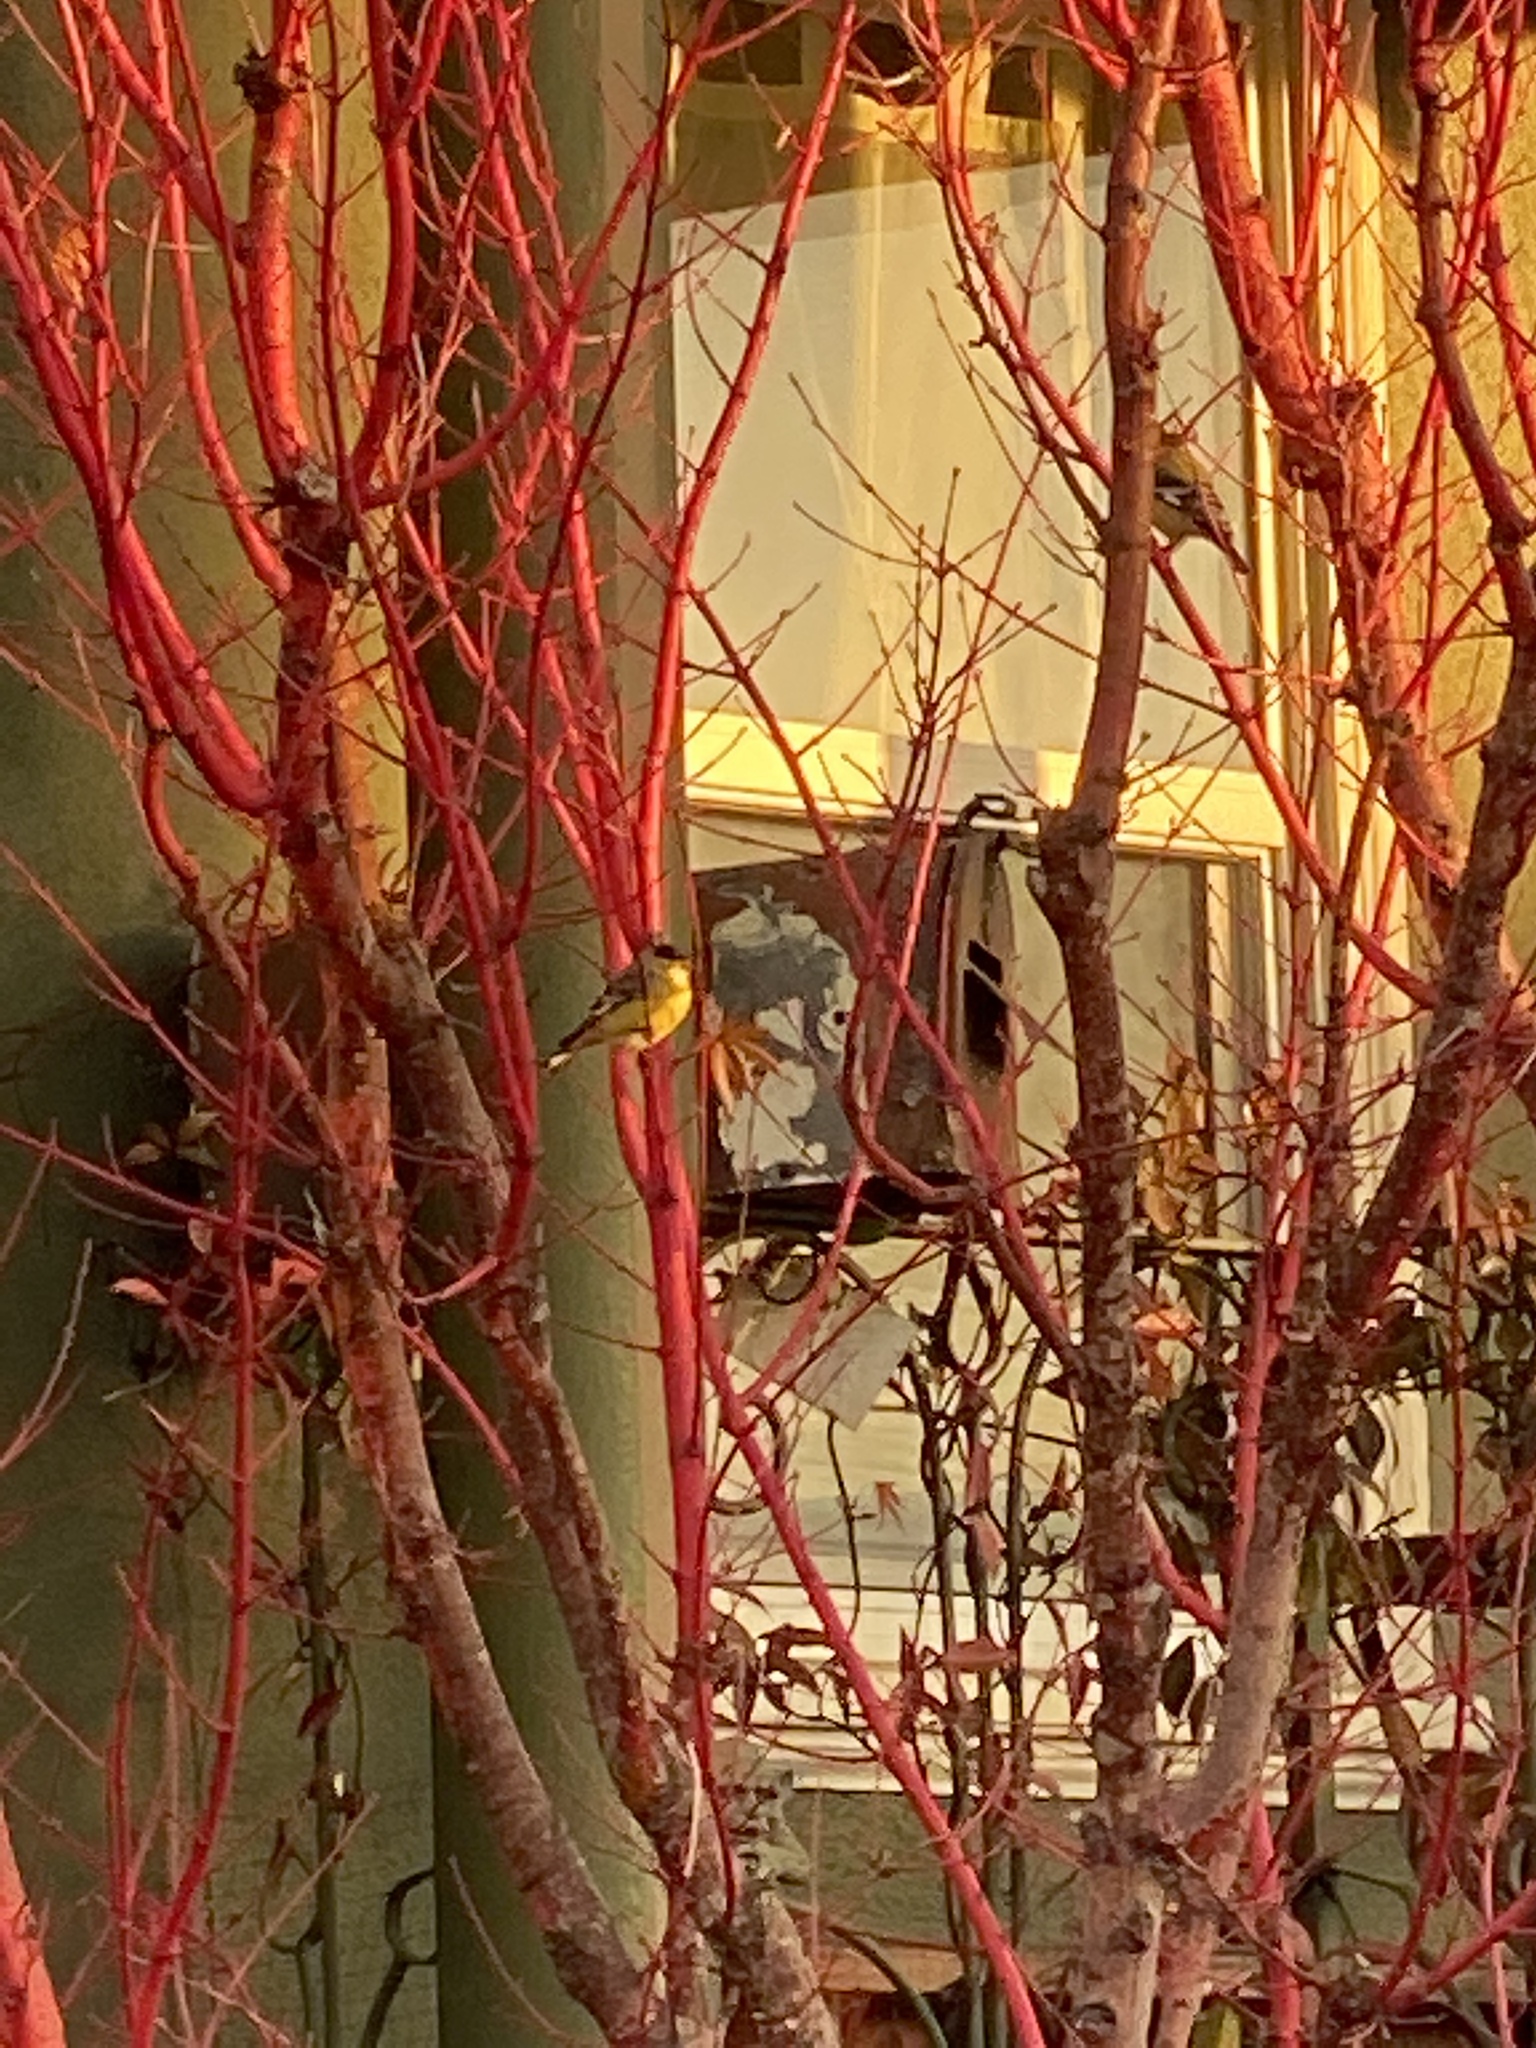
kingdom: Animalia
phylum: Chordata
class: Aves
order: Passeriformes
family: Fringillidae
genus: Spinus
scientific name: Spinus psaltria
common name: Lesser goldfinch
